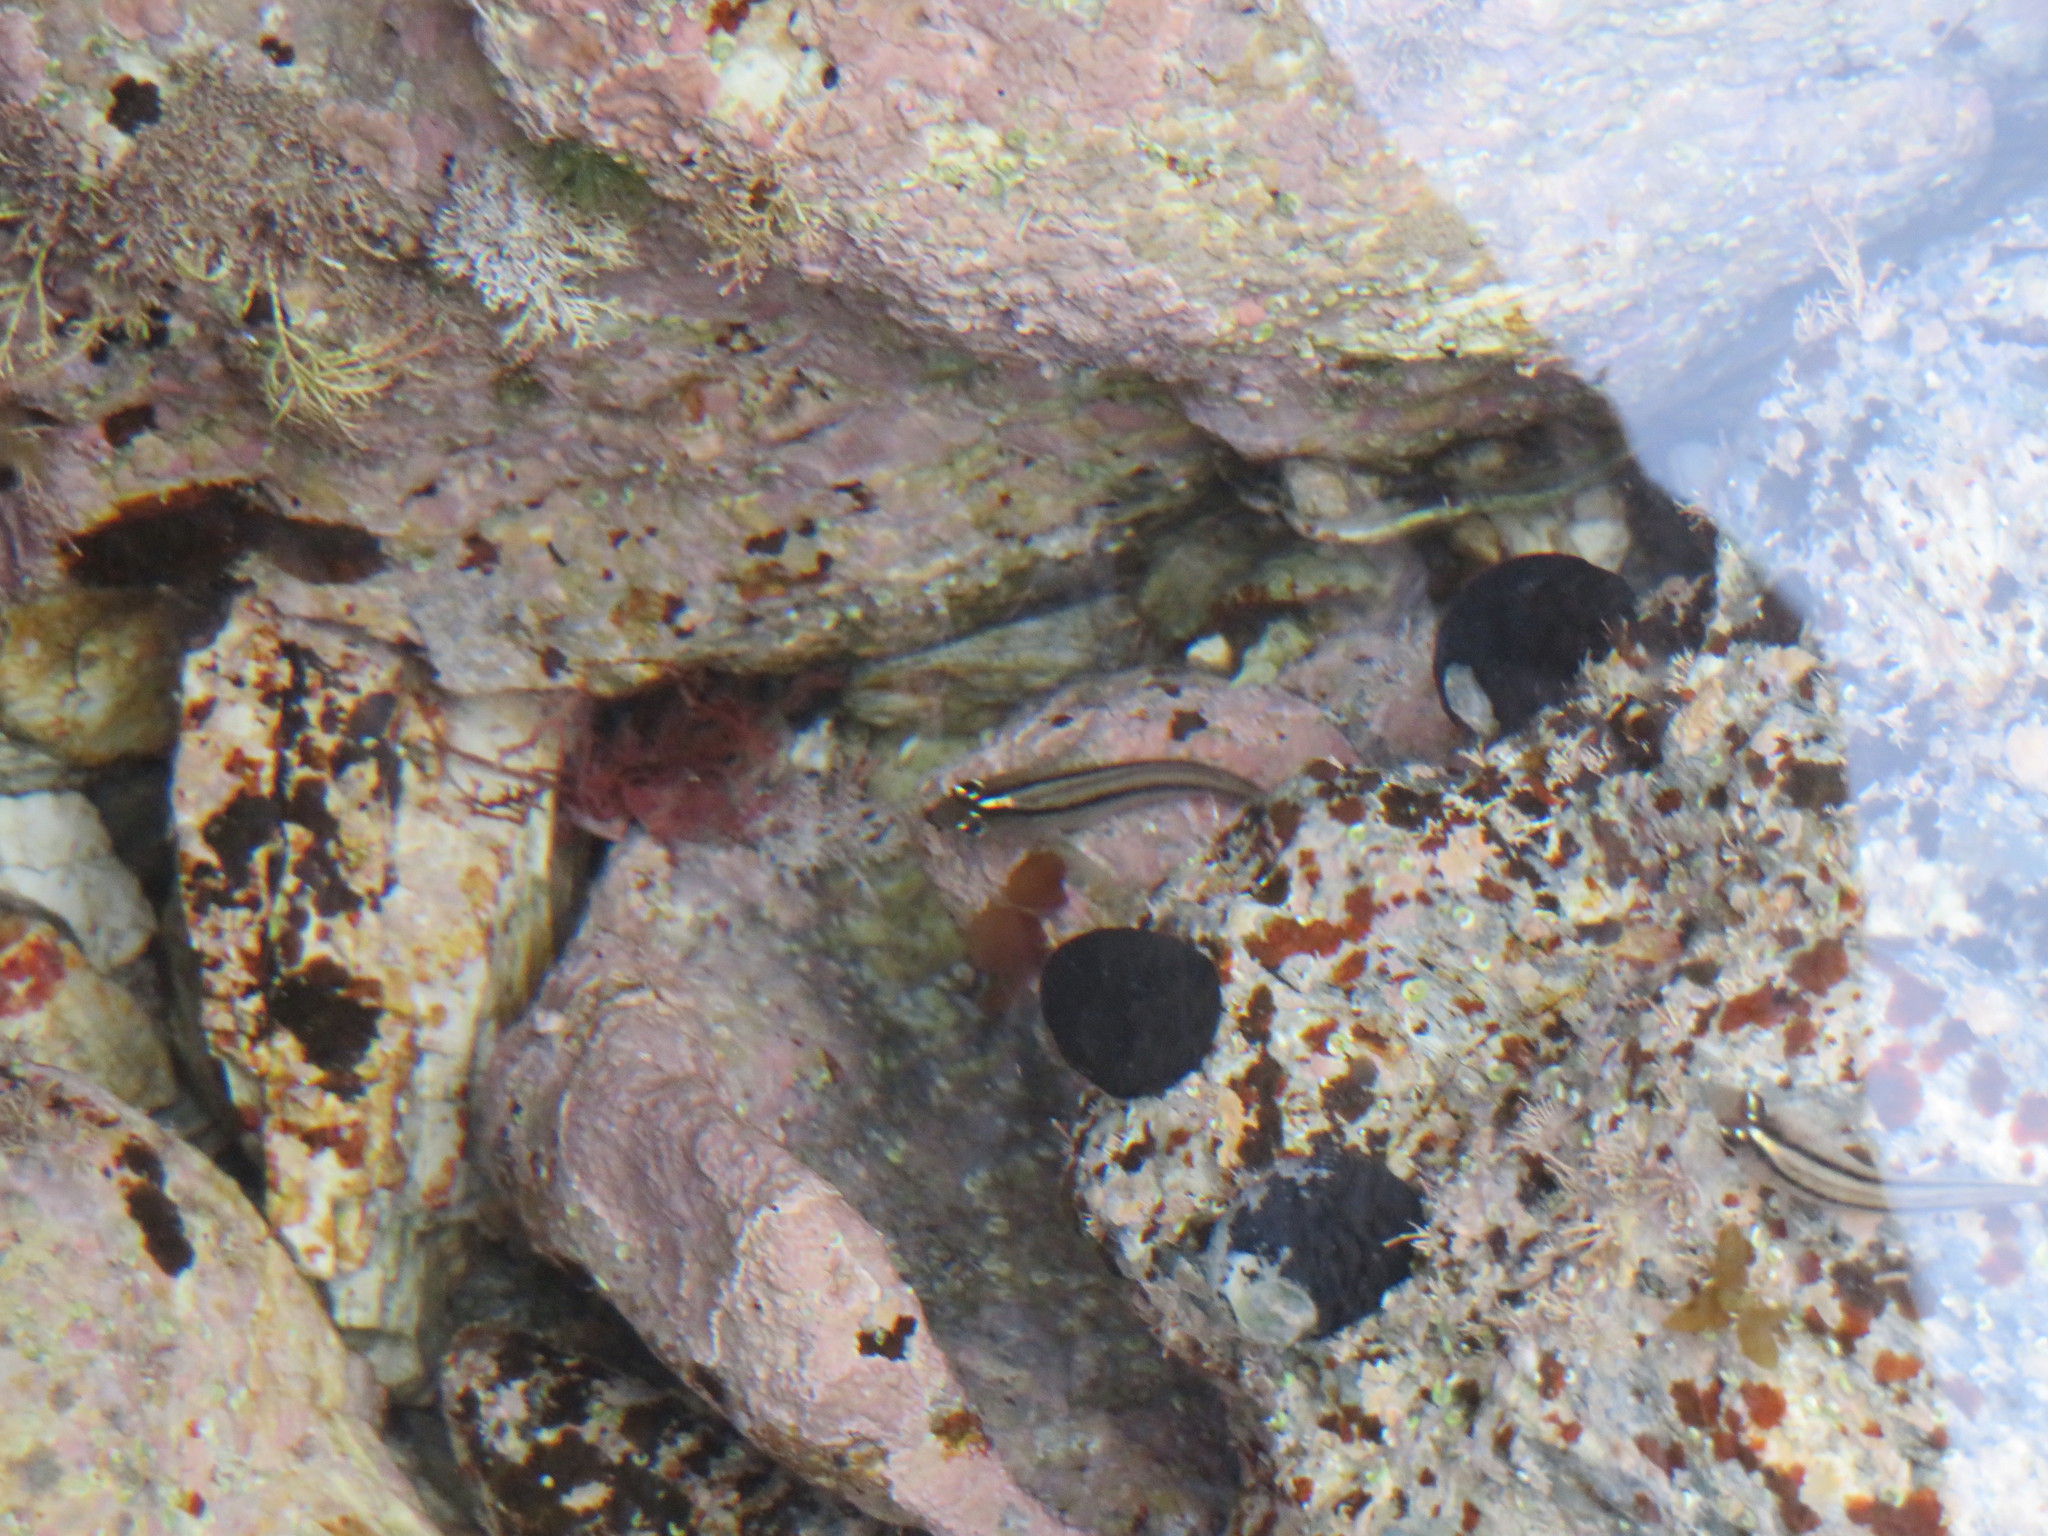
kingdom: Animalia
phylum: Chordata
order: Perciformes
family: Tripterygiidae
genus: Forsterygion
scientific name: Forsterygion lapillum
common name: Common triplefin
